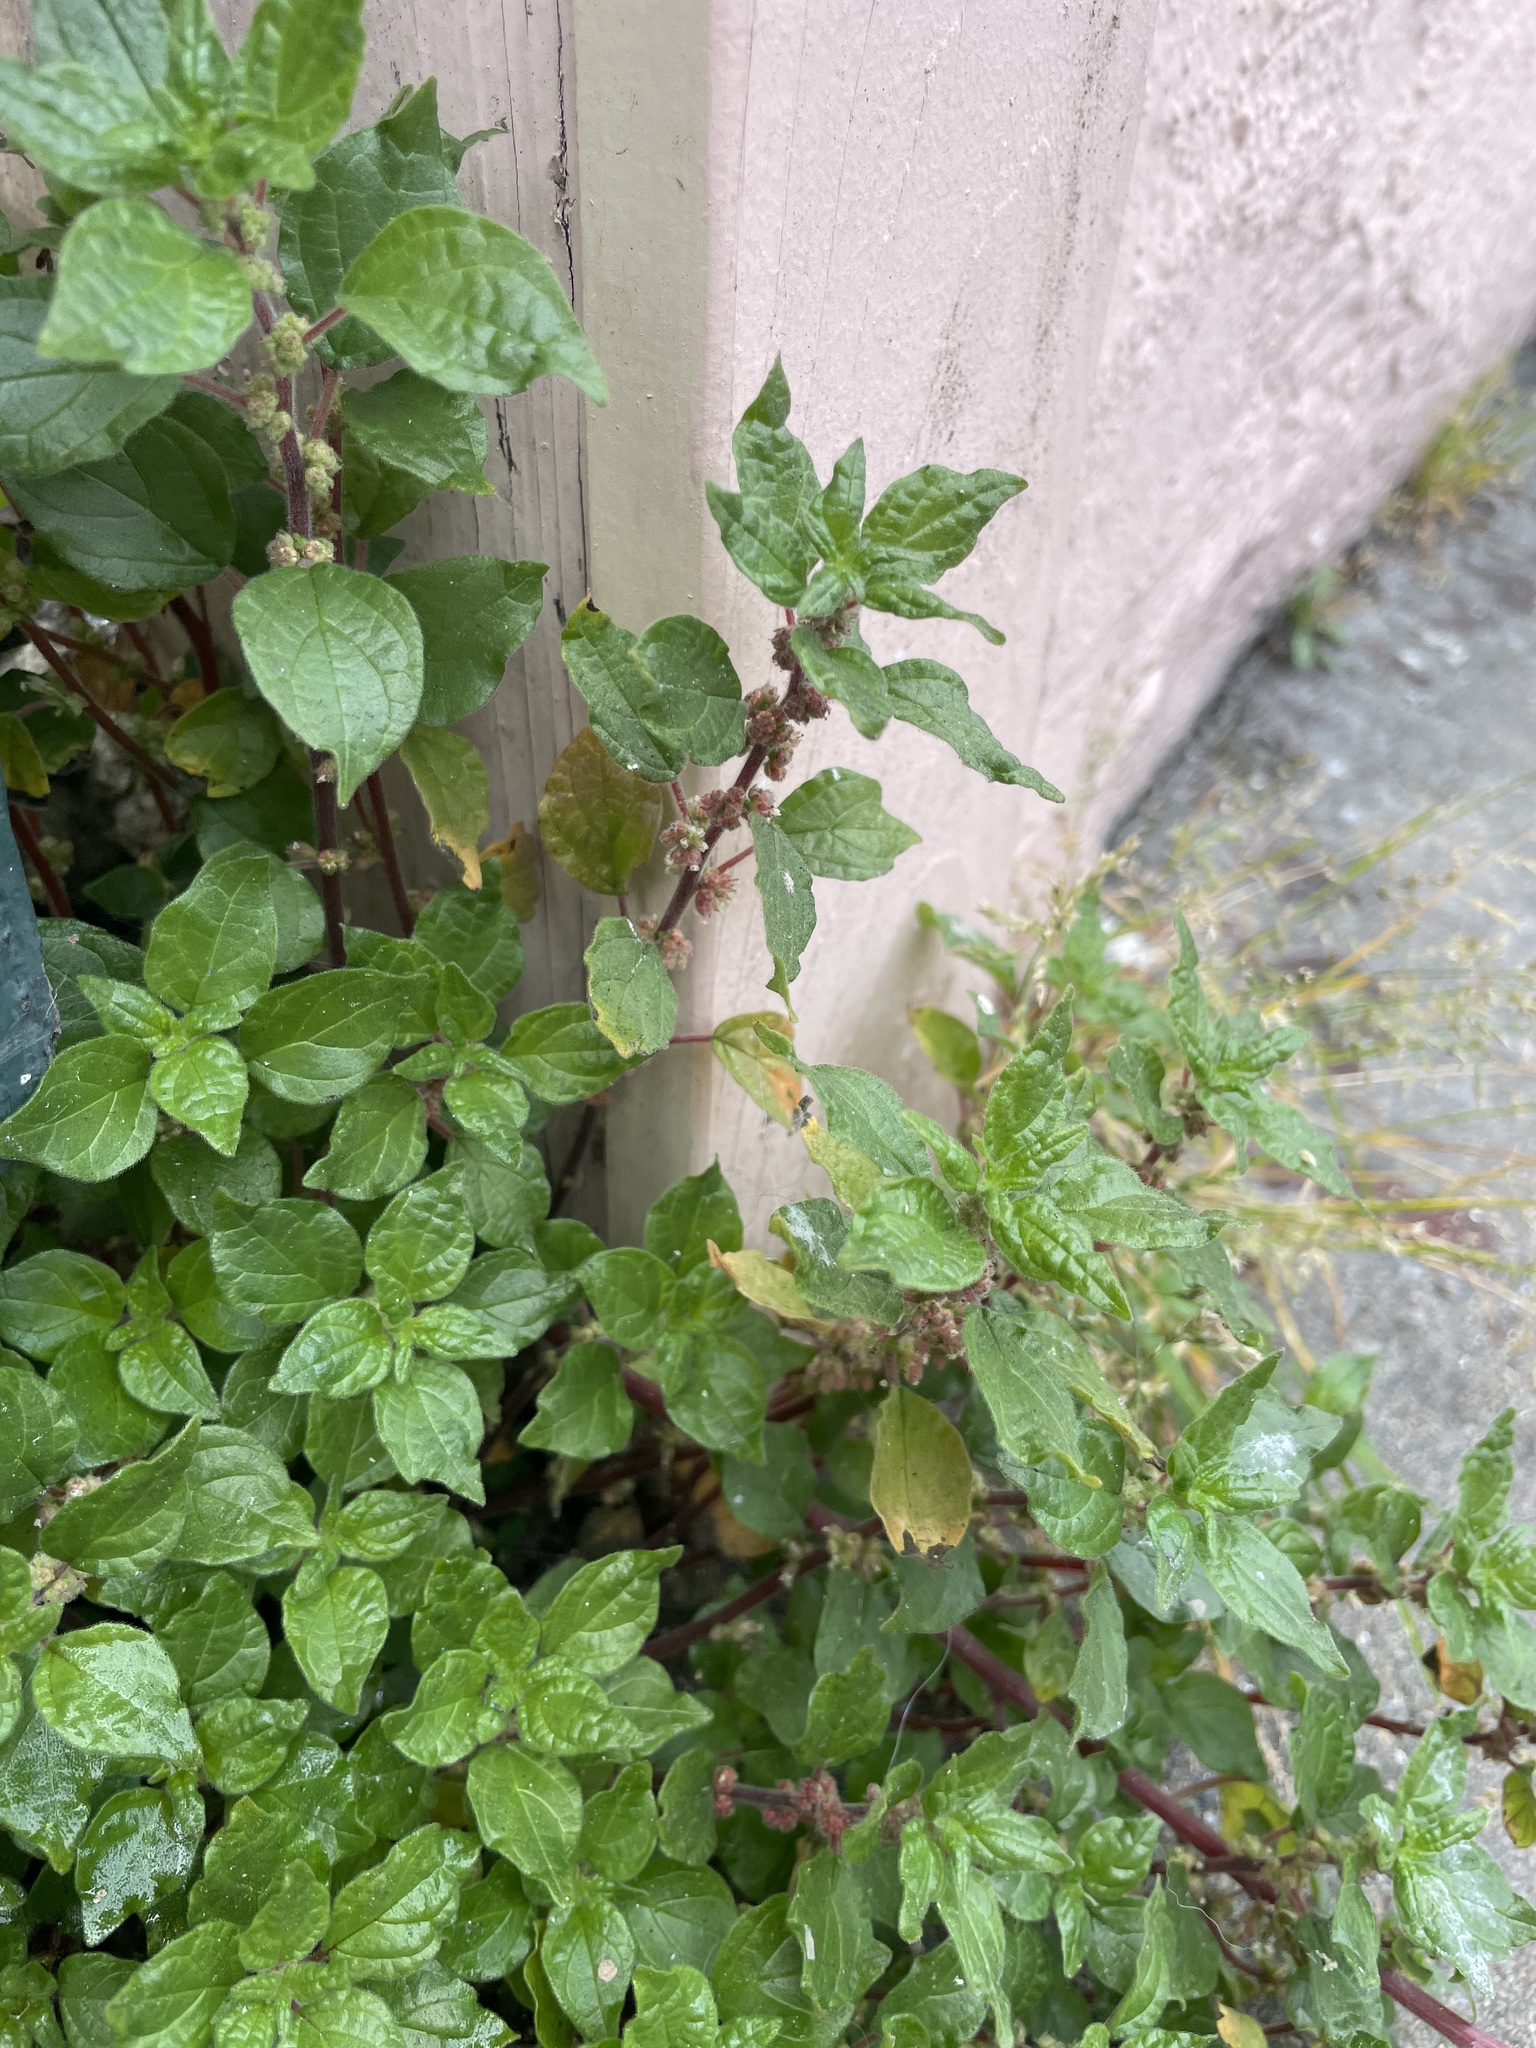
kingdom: Plantae
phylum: Tracheophyta
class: Magnoliopsida
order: Rosales
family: Urticaceae
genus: Parietaria
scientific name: Parietaria judaica
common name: Pellitory-of-the-wall
